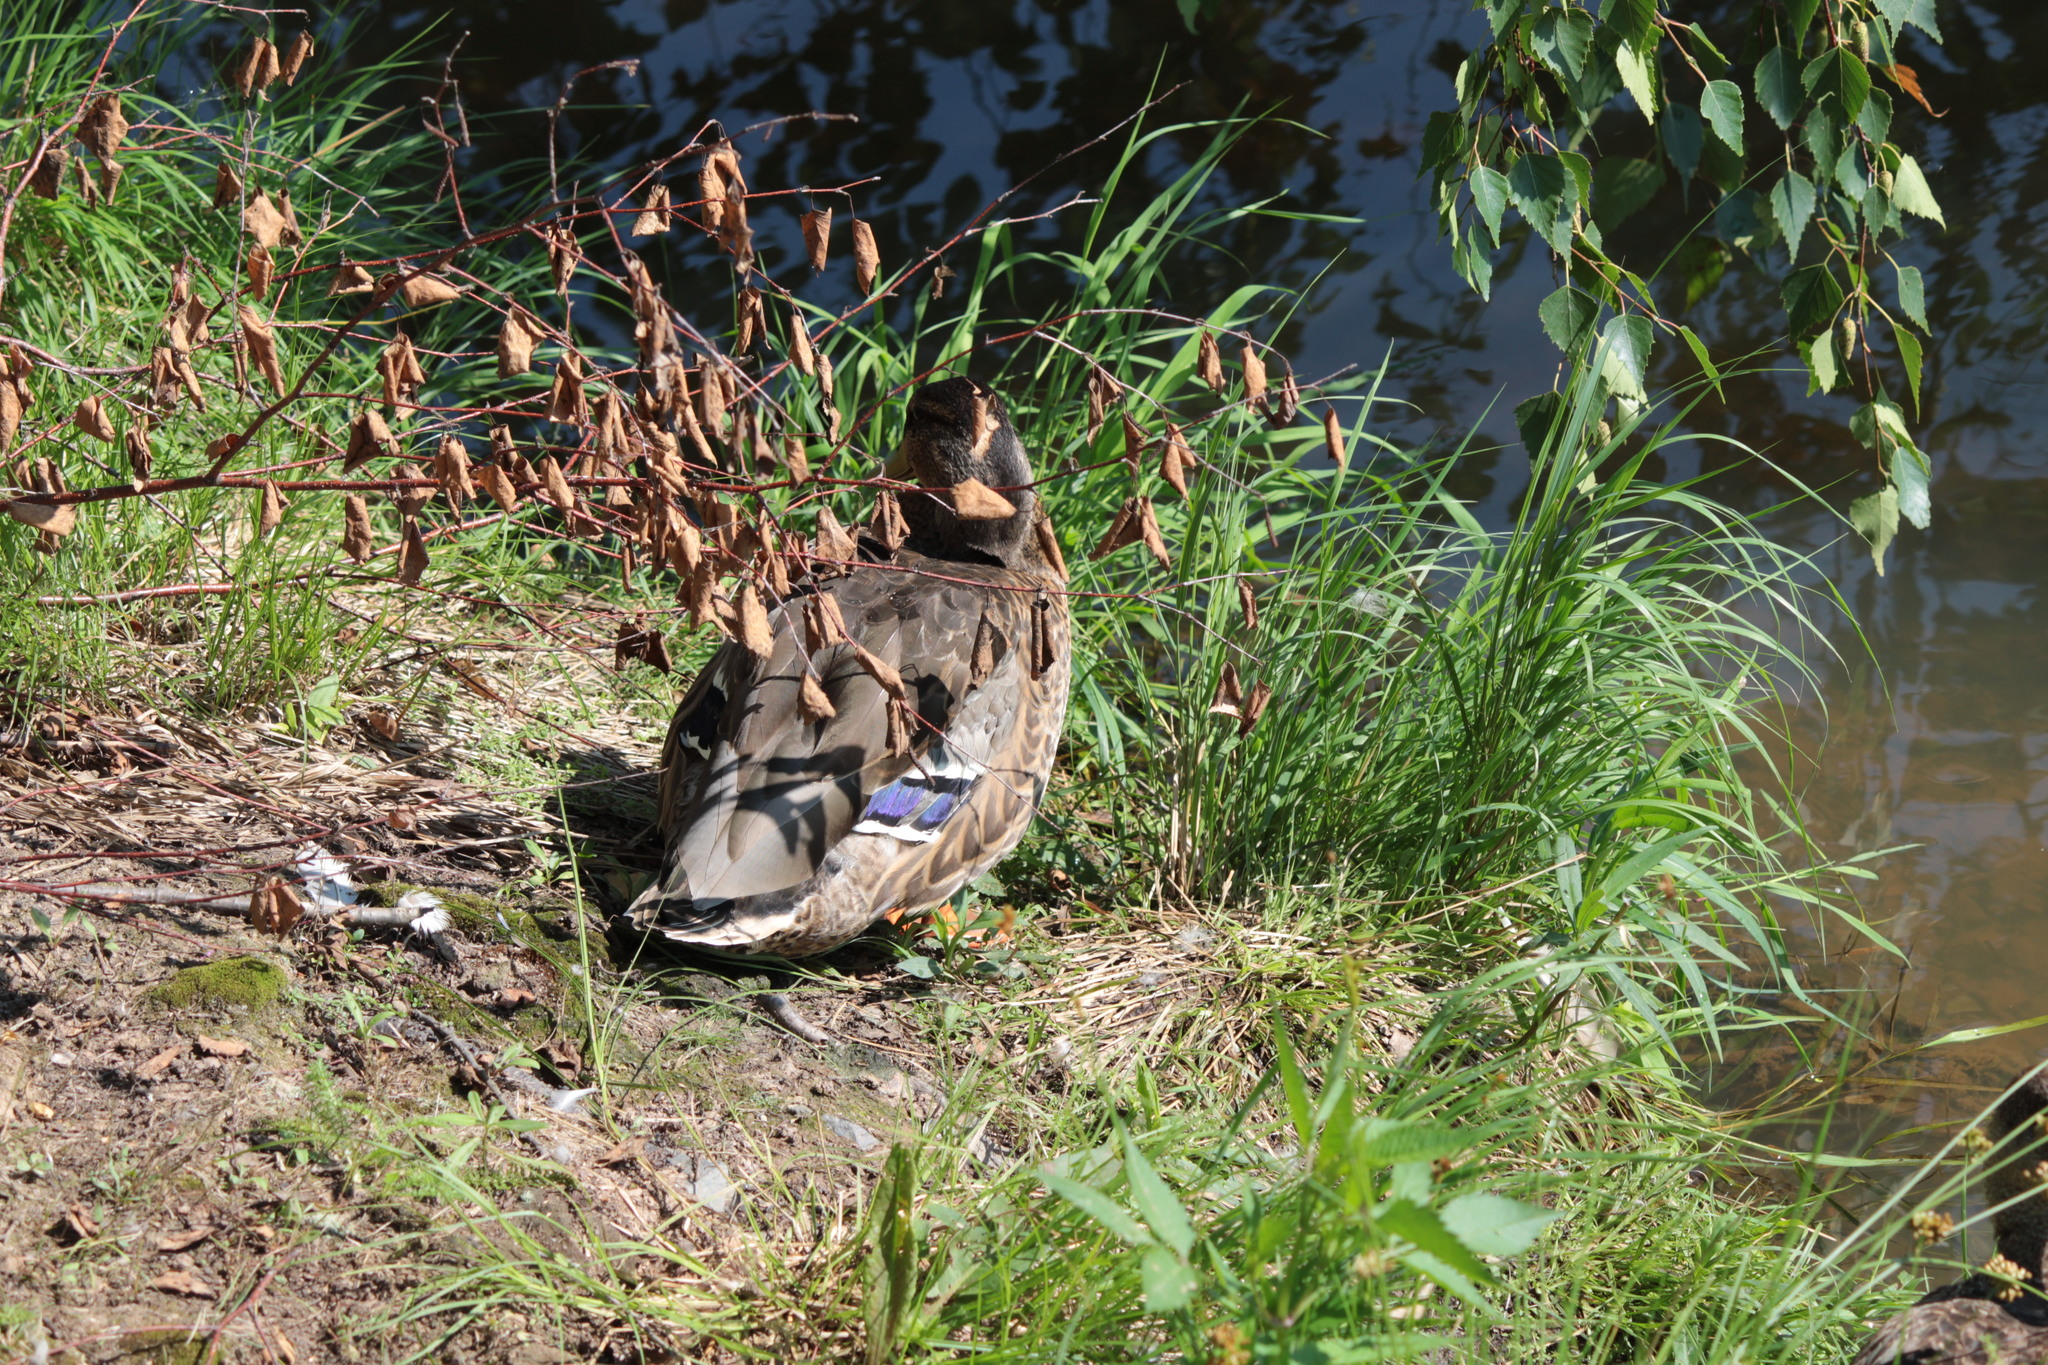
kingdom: Animalia
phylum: Chordata
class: Aves
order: Anseriformes
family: Anatidae
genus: Anas
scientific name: Anas platyrhynchos
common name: Mallard
